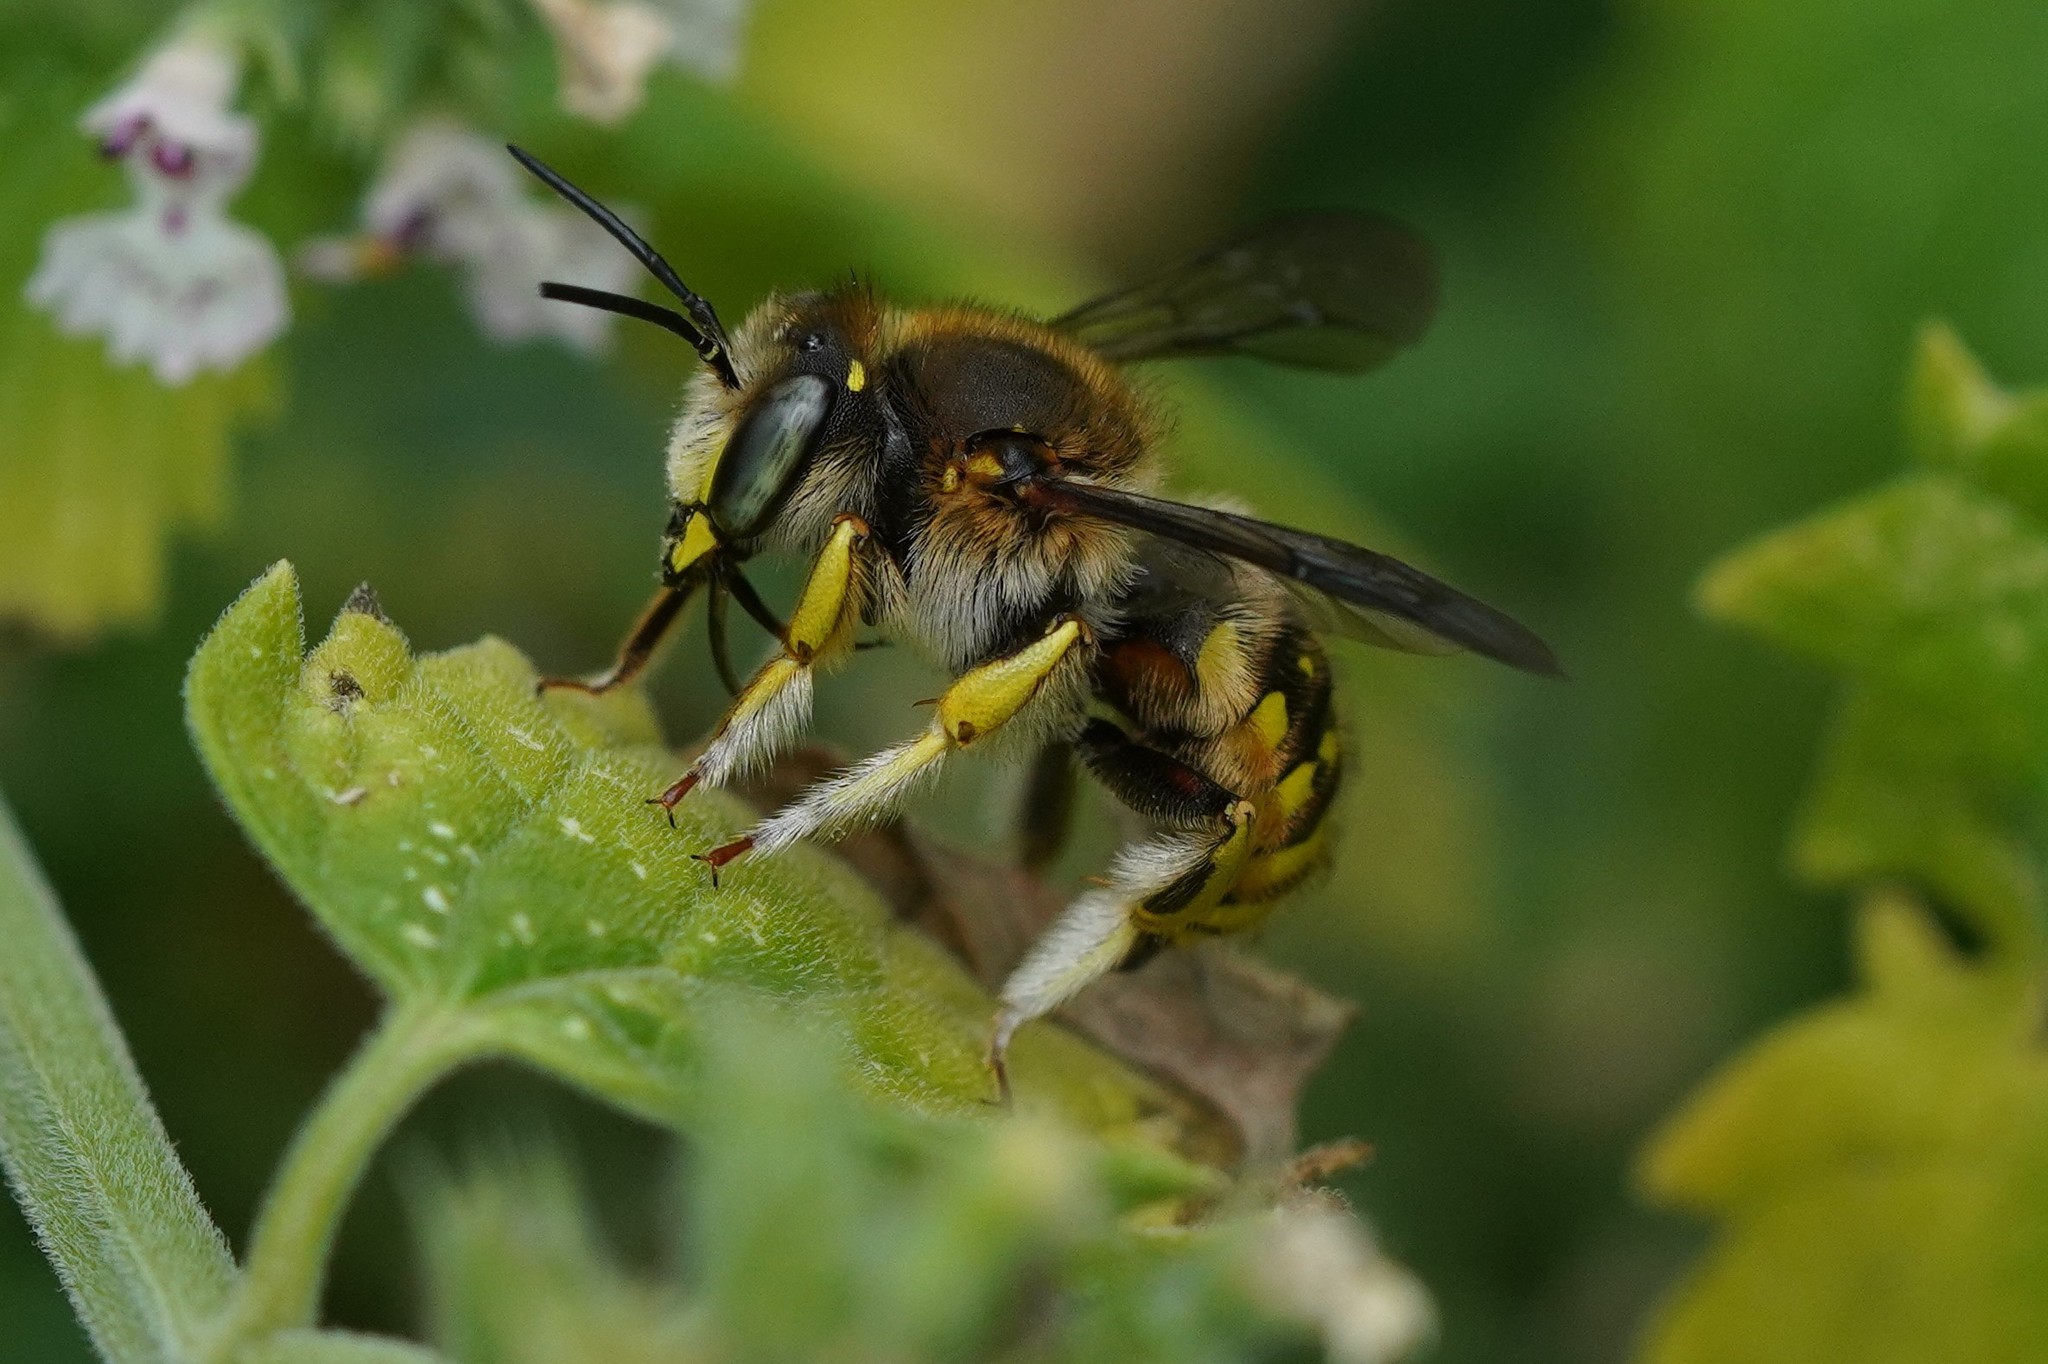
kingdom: Animalia
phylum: Arthropoda
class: Insecta
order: Hymenoptera
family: Megachilidae
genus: Anthidium
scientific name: Anthidium manicatum
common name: Wool carder bee
